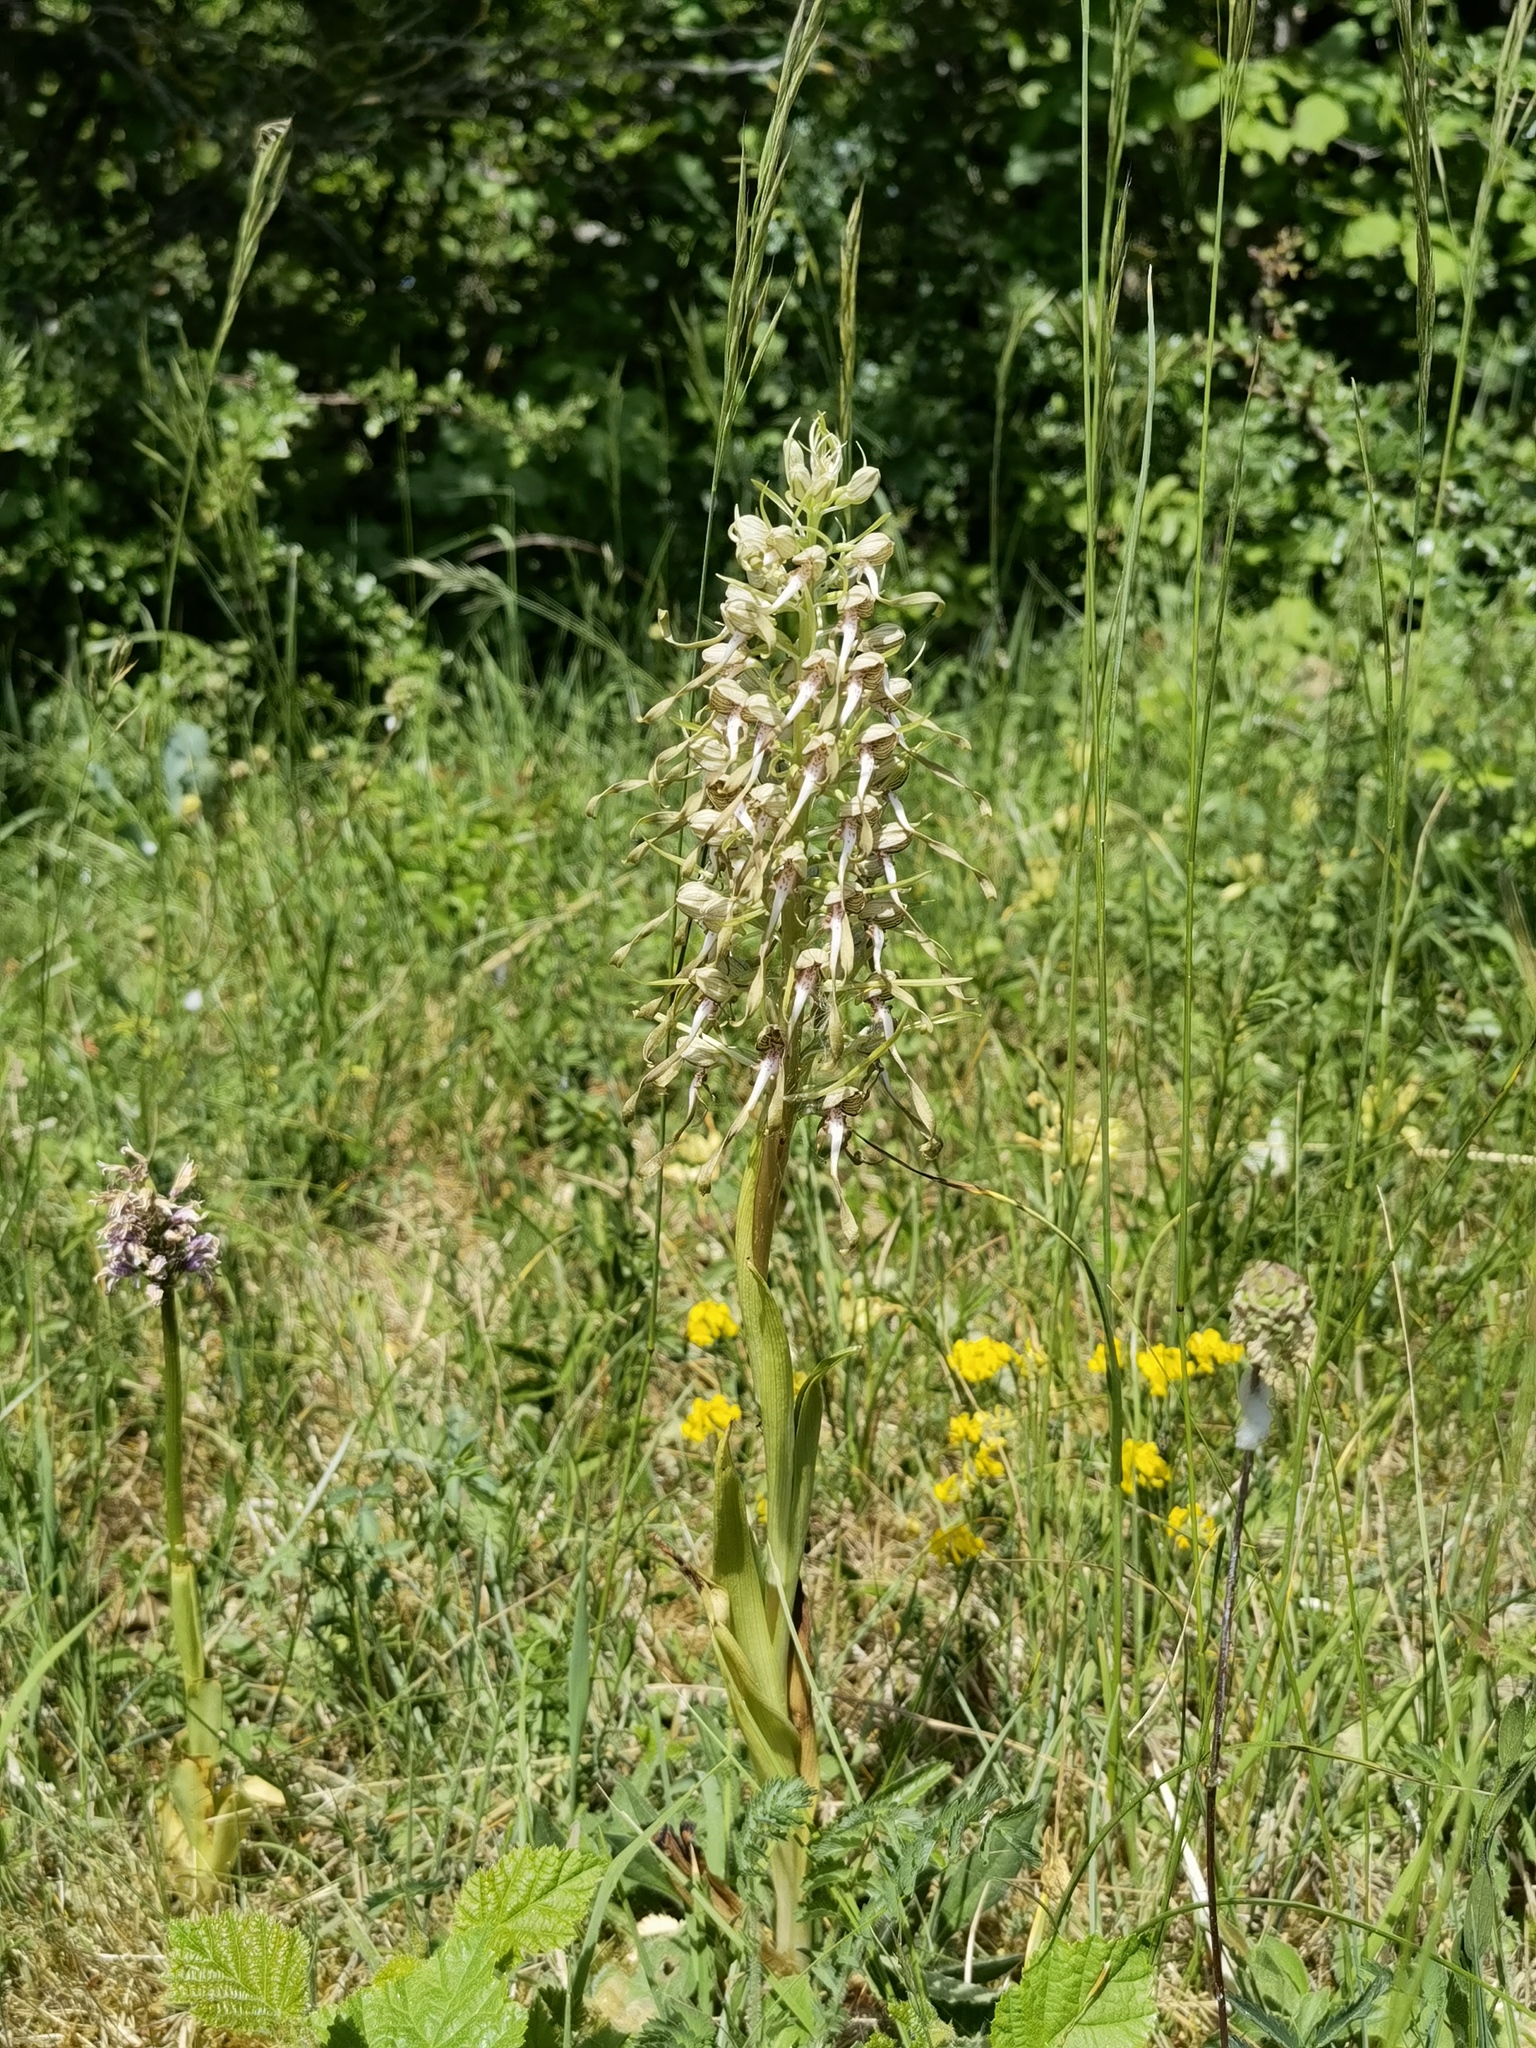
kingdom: Plantae
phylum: Tracheophyta
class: Liliopsida
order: Asparagales
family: Orchidaceae
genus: Himantoglossum
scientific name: Himantoglossum hircinum
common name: Lizard orchid
